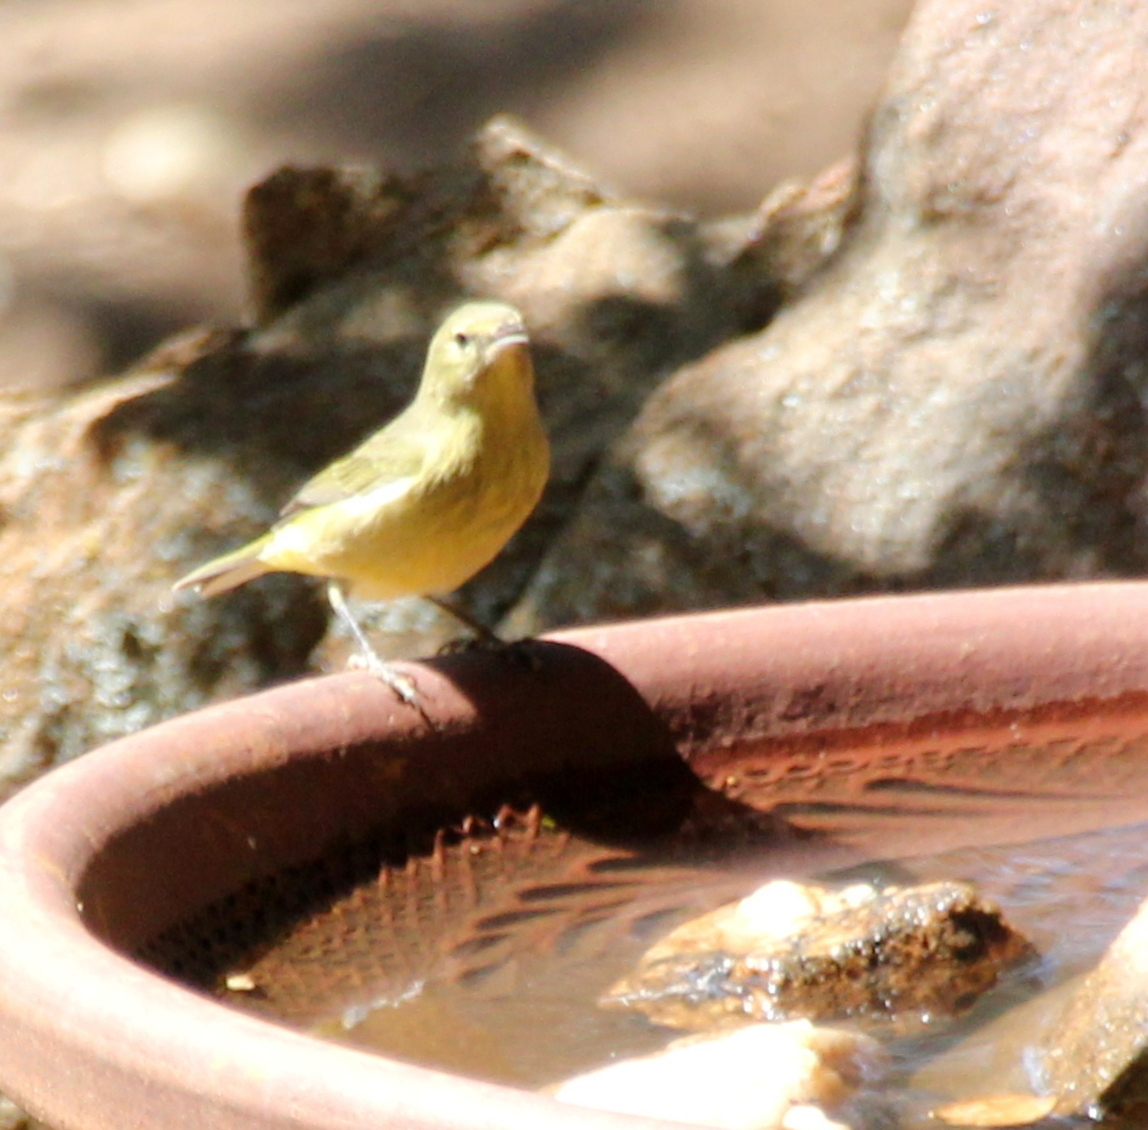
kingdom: Animalia
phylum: Chordata
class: Aves
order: Passeriformes
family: Parulidae
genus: Leiothlypis
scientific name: Leiothlypis celata
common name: Orange-crowned warbler
